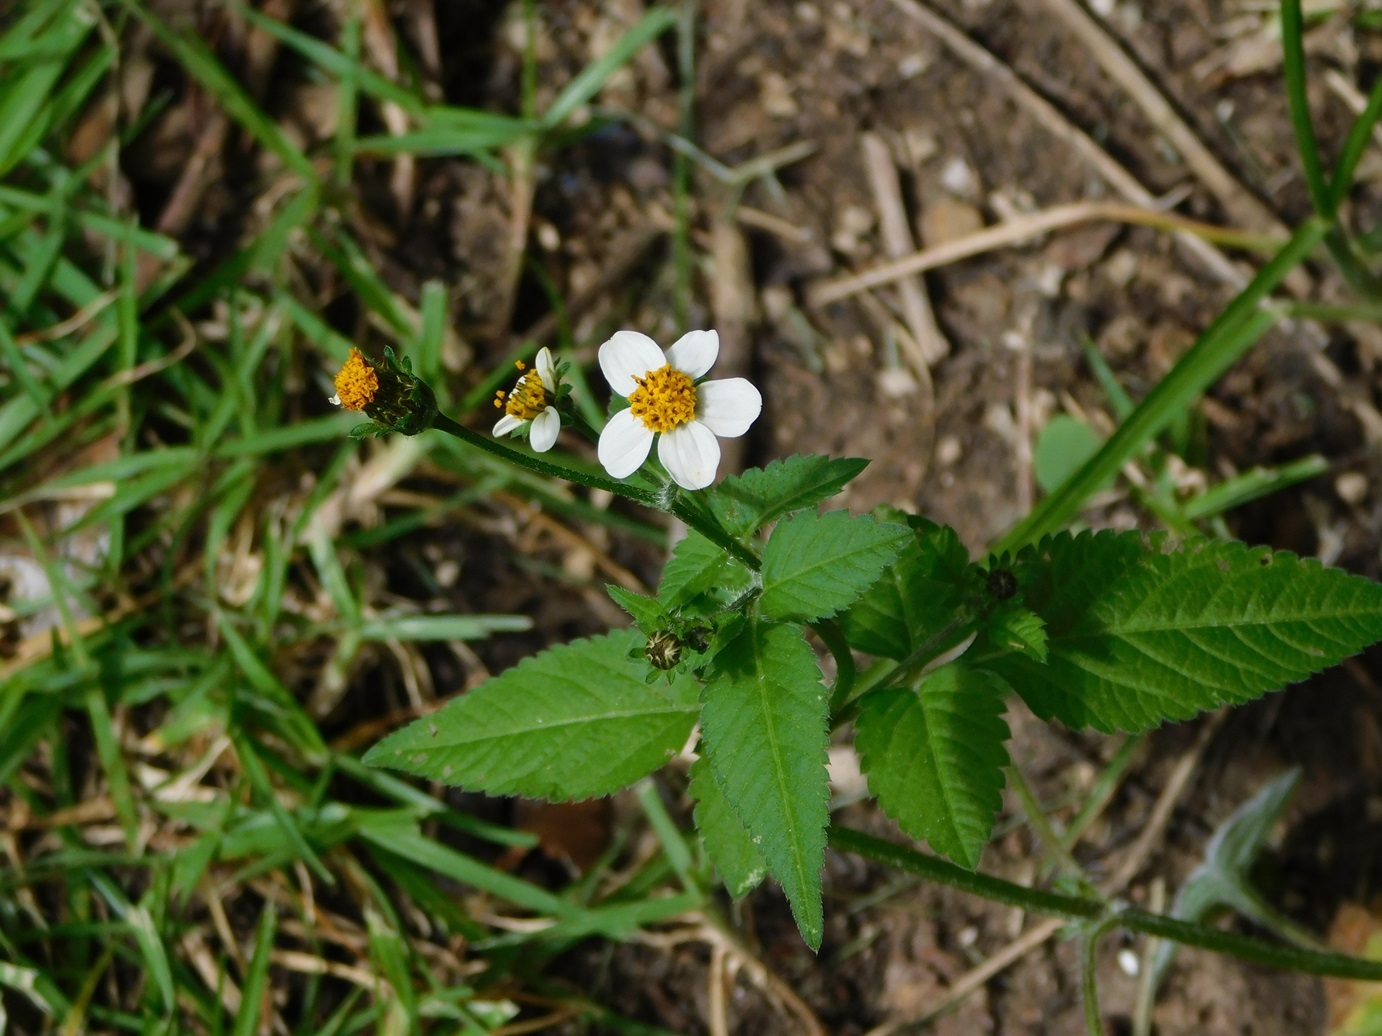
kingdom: Plantae
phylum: Tracheophyta
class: Magnoliopsida
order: Asterales
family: Asteraceae
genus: Bidens
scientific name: Bidens odorata
